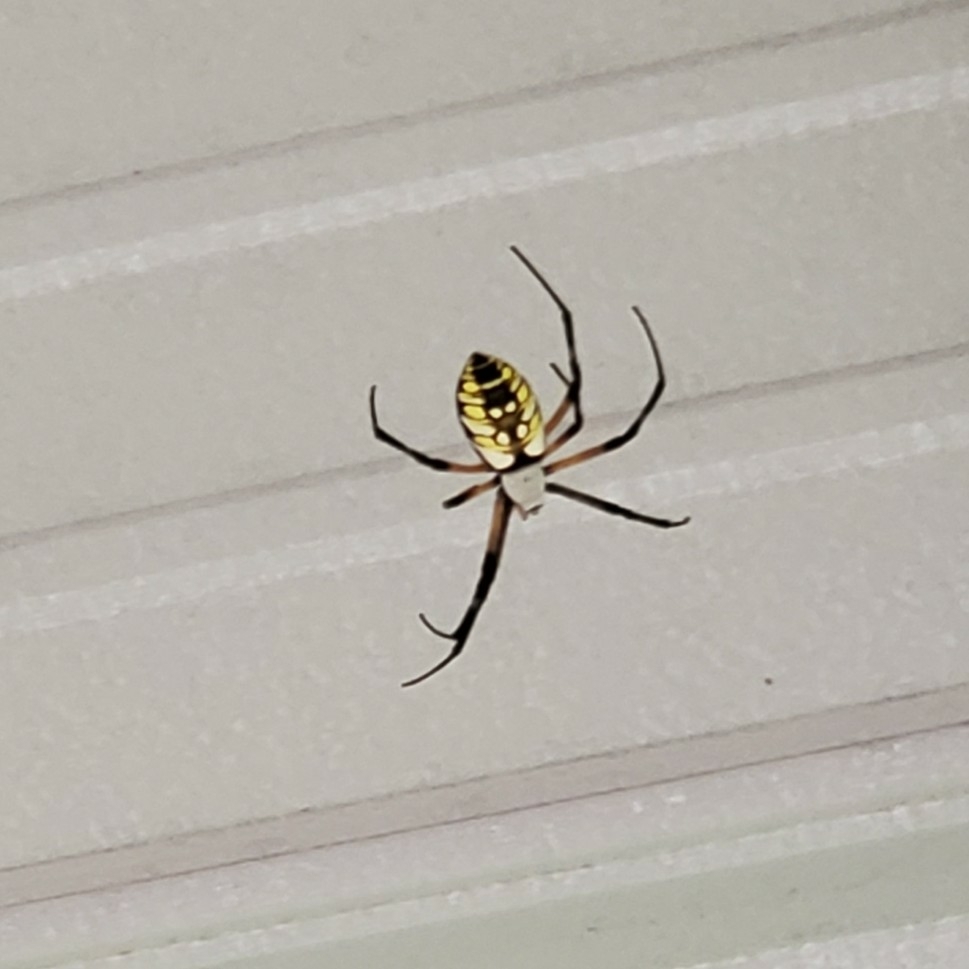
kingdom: Animalia
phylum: Arthropoda
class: Arachnida
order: Araneae
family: Araneidae
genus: Argiope
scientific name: Argiope aurantia
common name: Orb weavers
